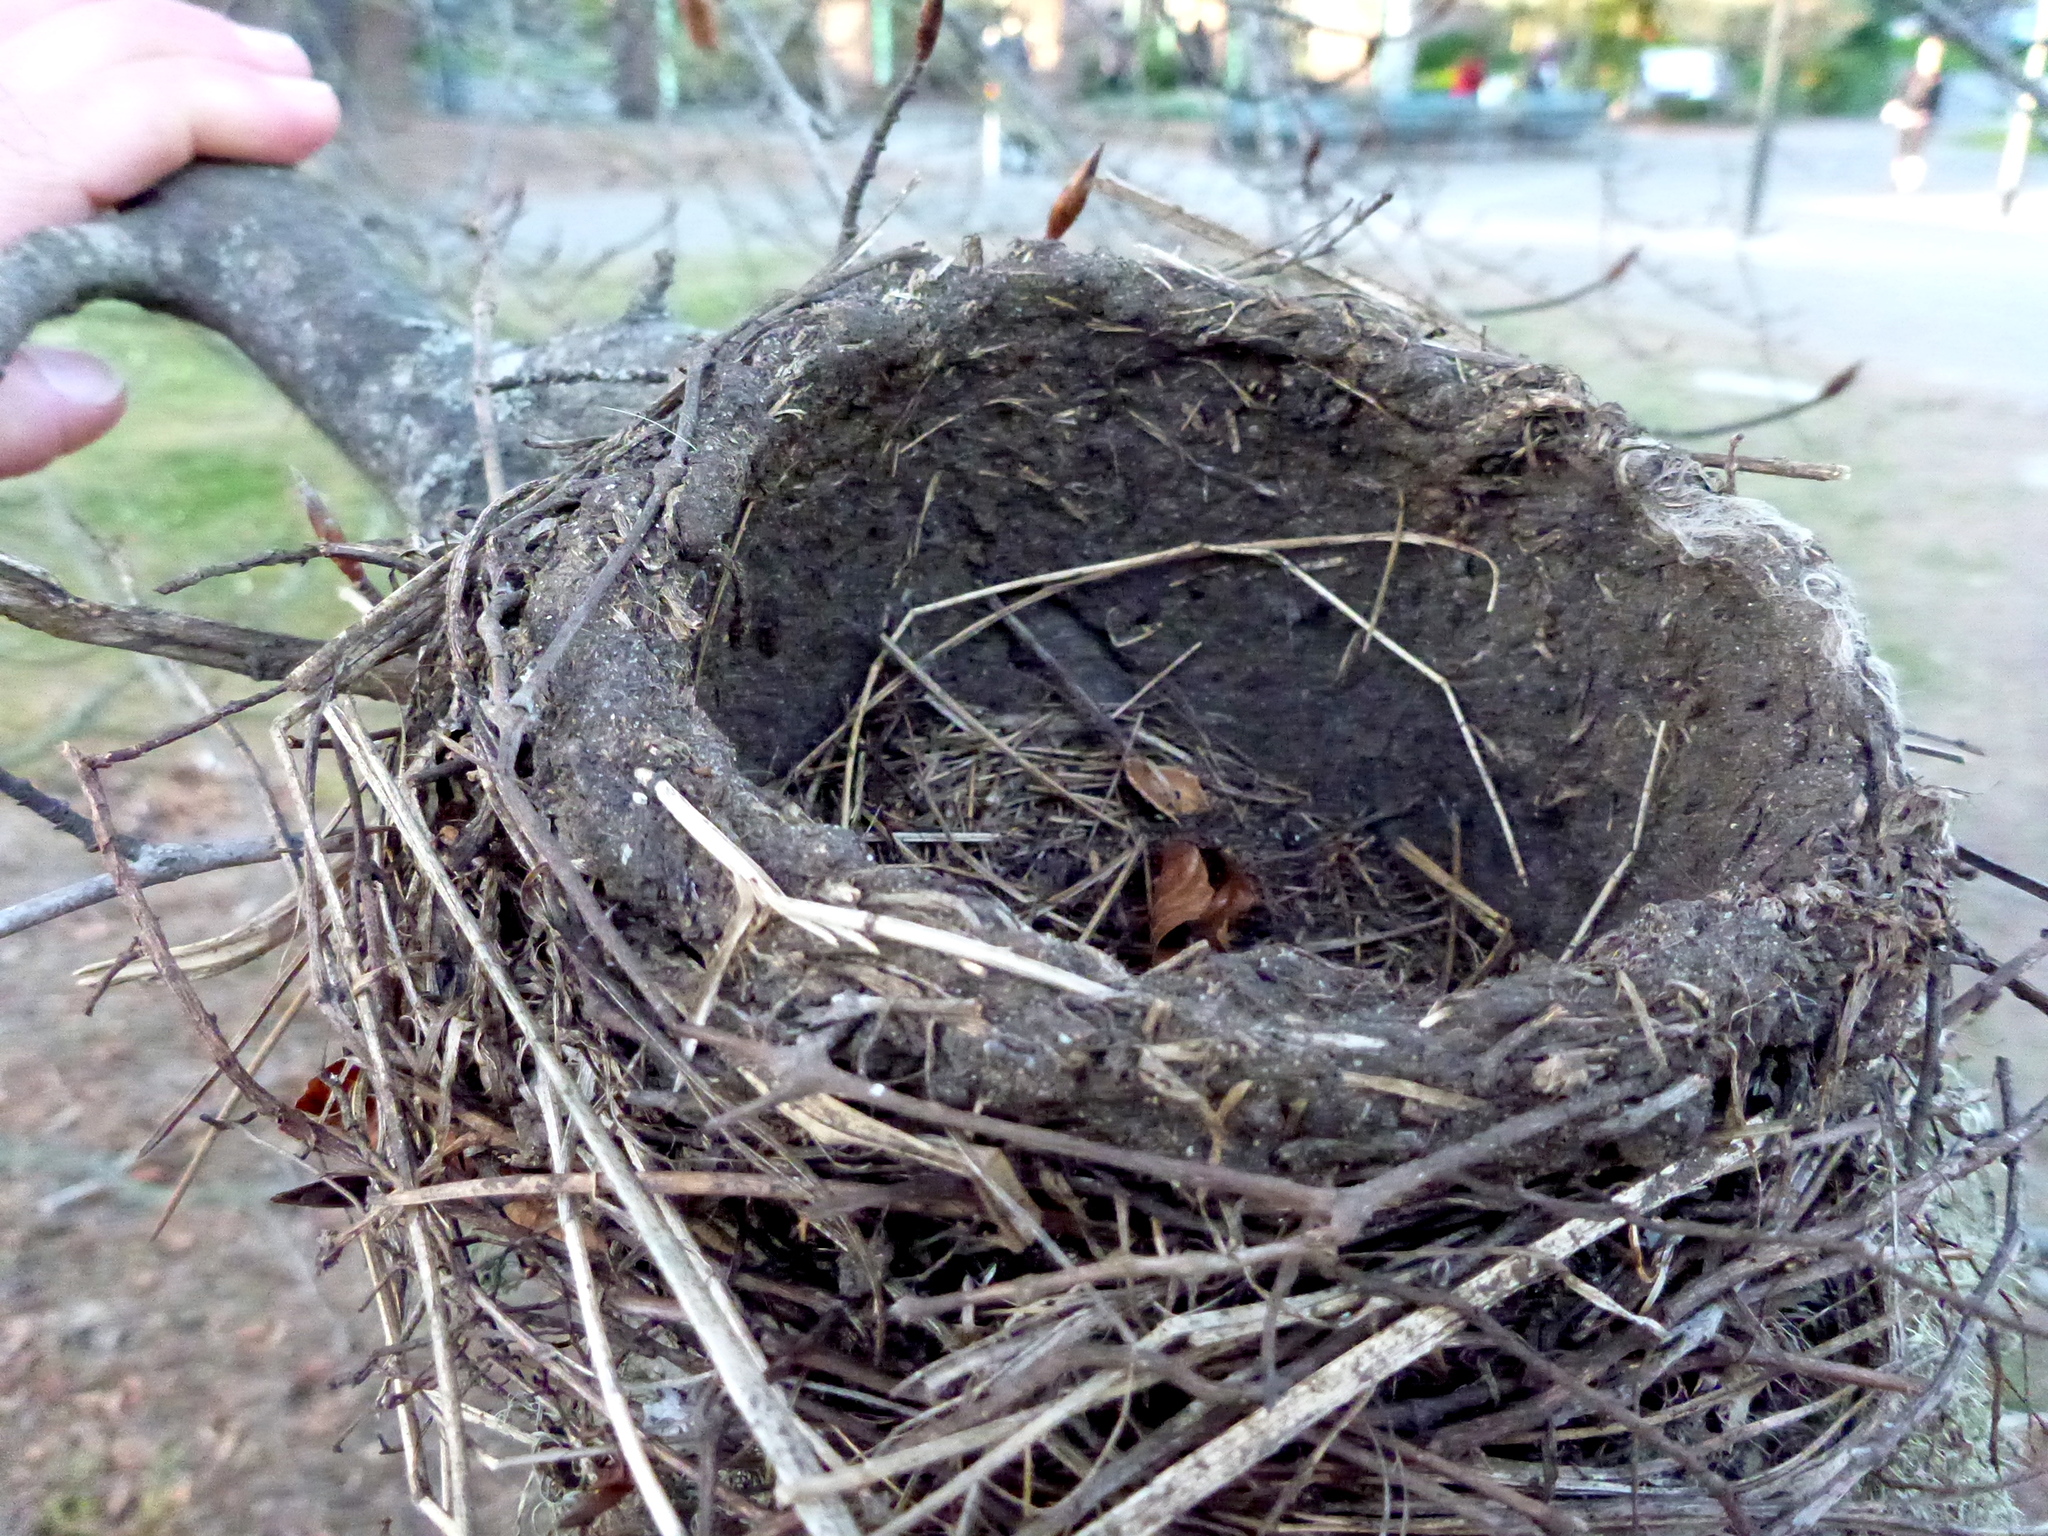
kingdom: Animalia
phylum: Chordata
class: Aves
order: Passeriformes
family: Turdidae
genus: Turdus
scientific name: Turdus migratorius
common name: American robin
